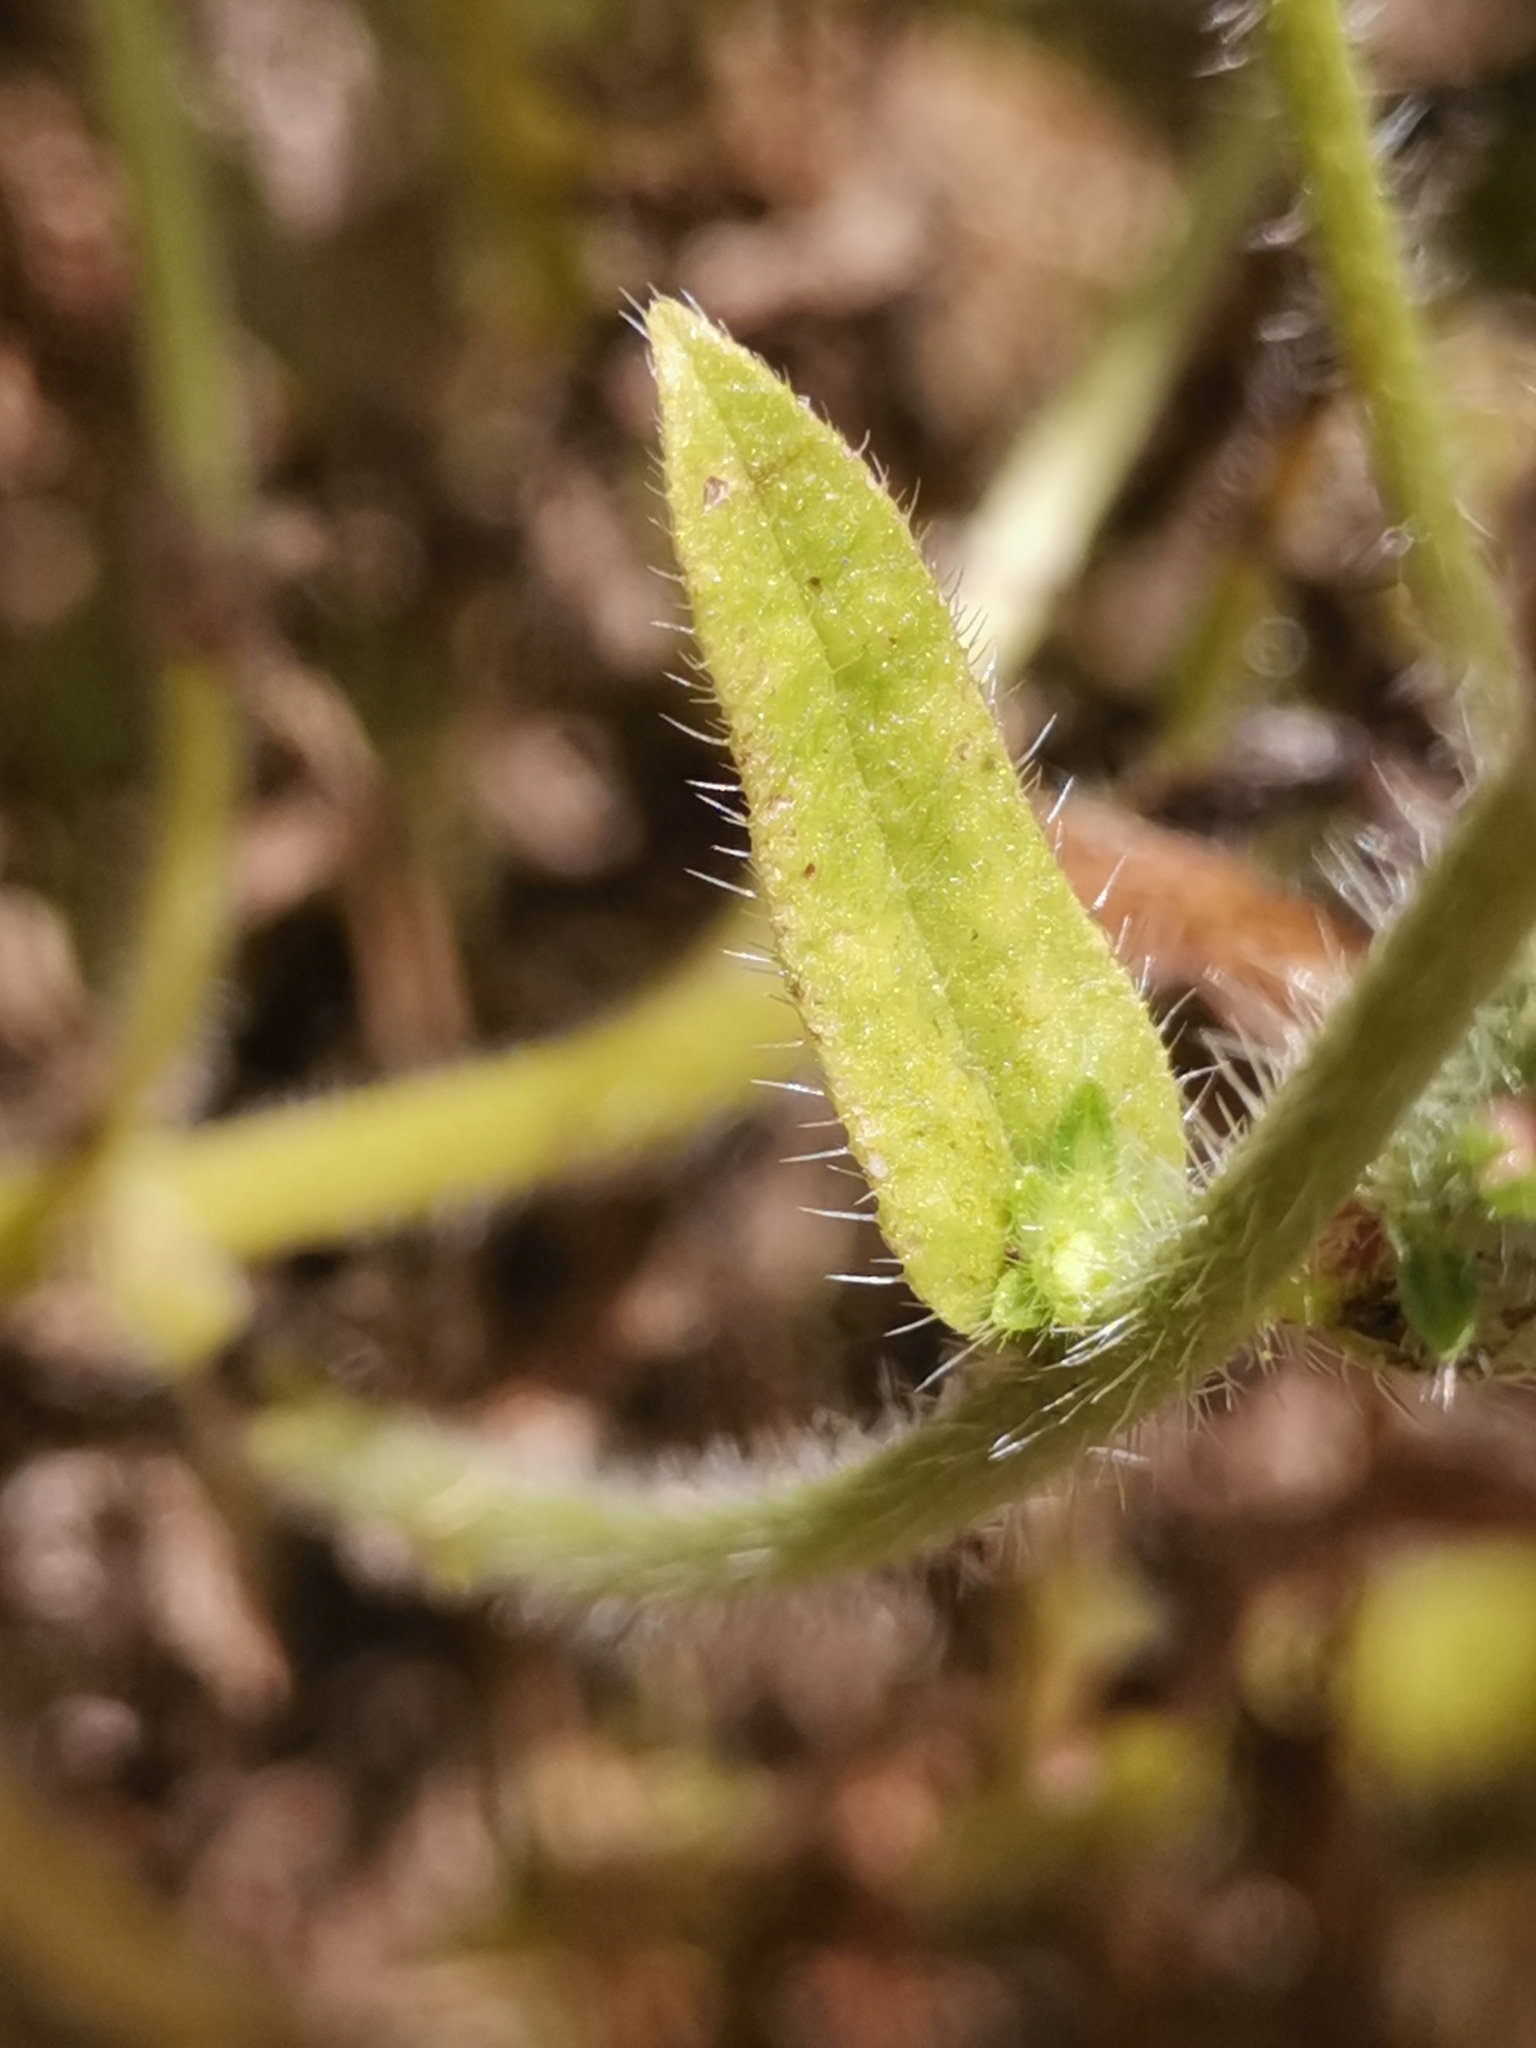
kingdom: Plantae
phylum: Tracheophyta
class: Magnoliopsida
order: Boraginales
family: Boraginaceae
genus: Echium
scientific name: Echium plantagineum
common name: Purple viper's-bugloss
